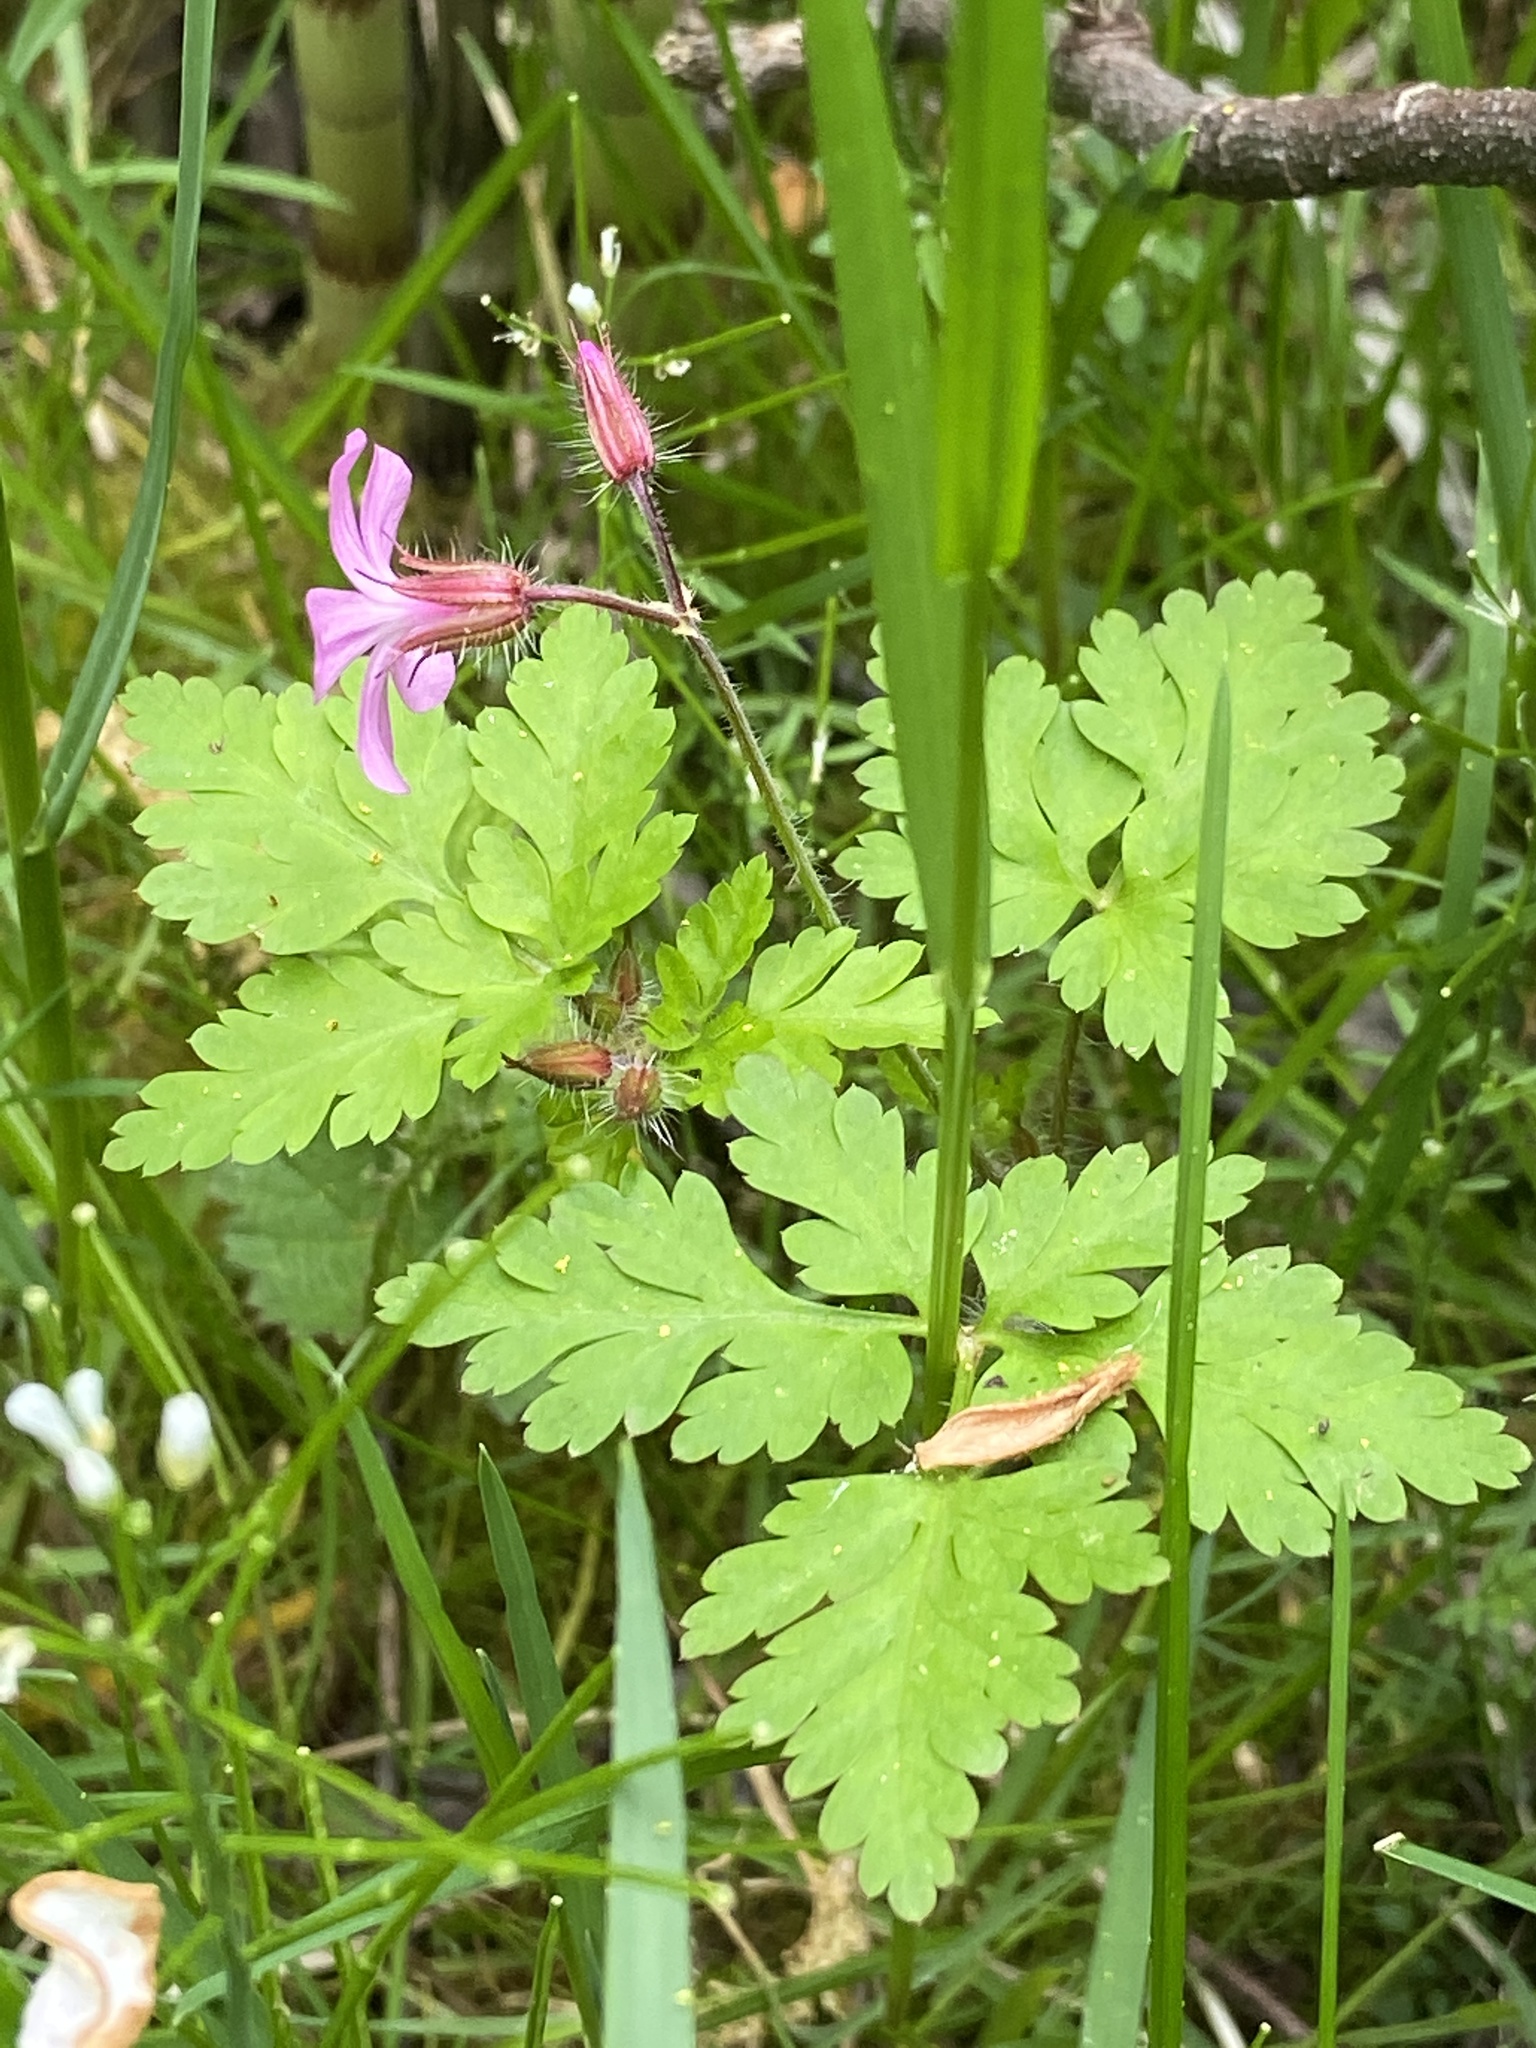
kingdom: Plantae
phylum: Tracheophyta
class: Magnoliopsida
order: Geraniales
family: Geraniaceae
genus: Geranium
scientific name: Geranium robertianum
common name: Herb-robert
